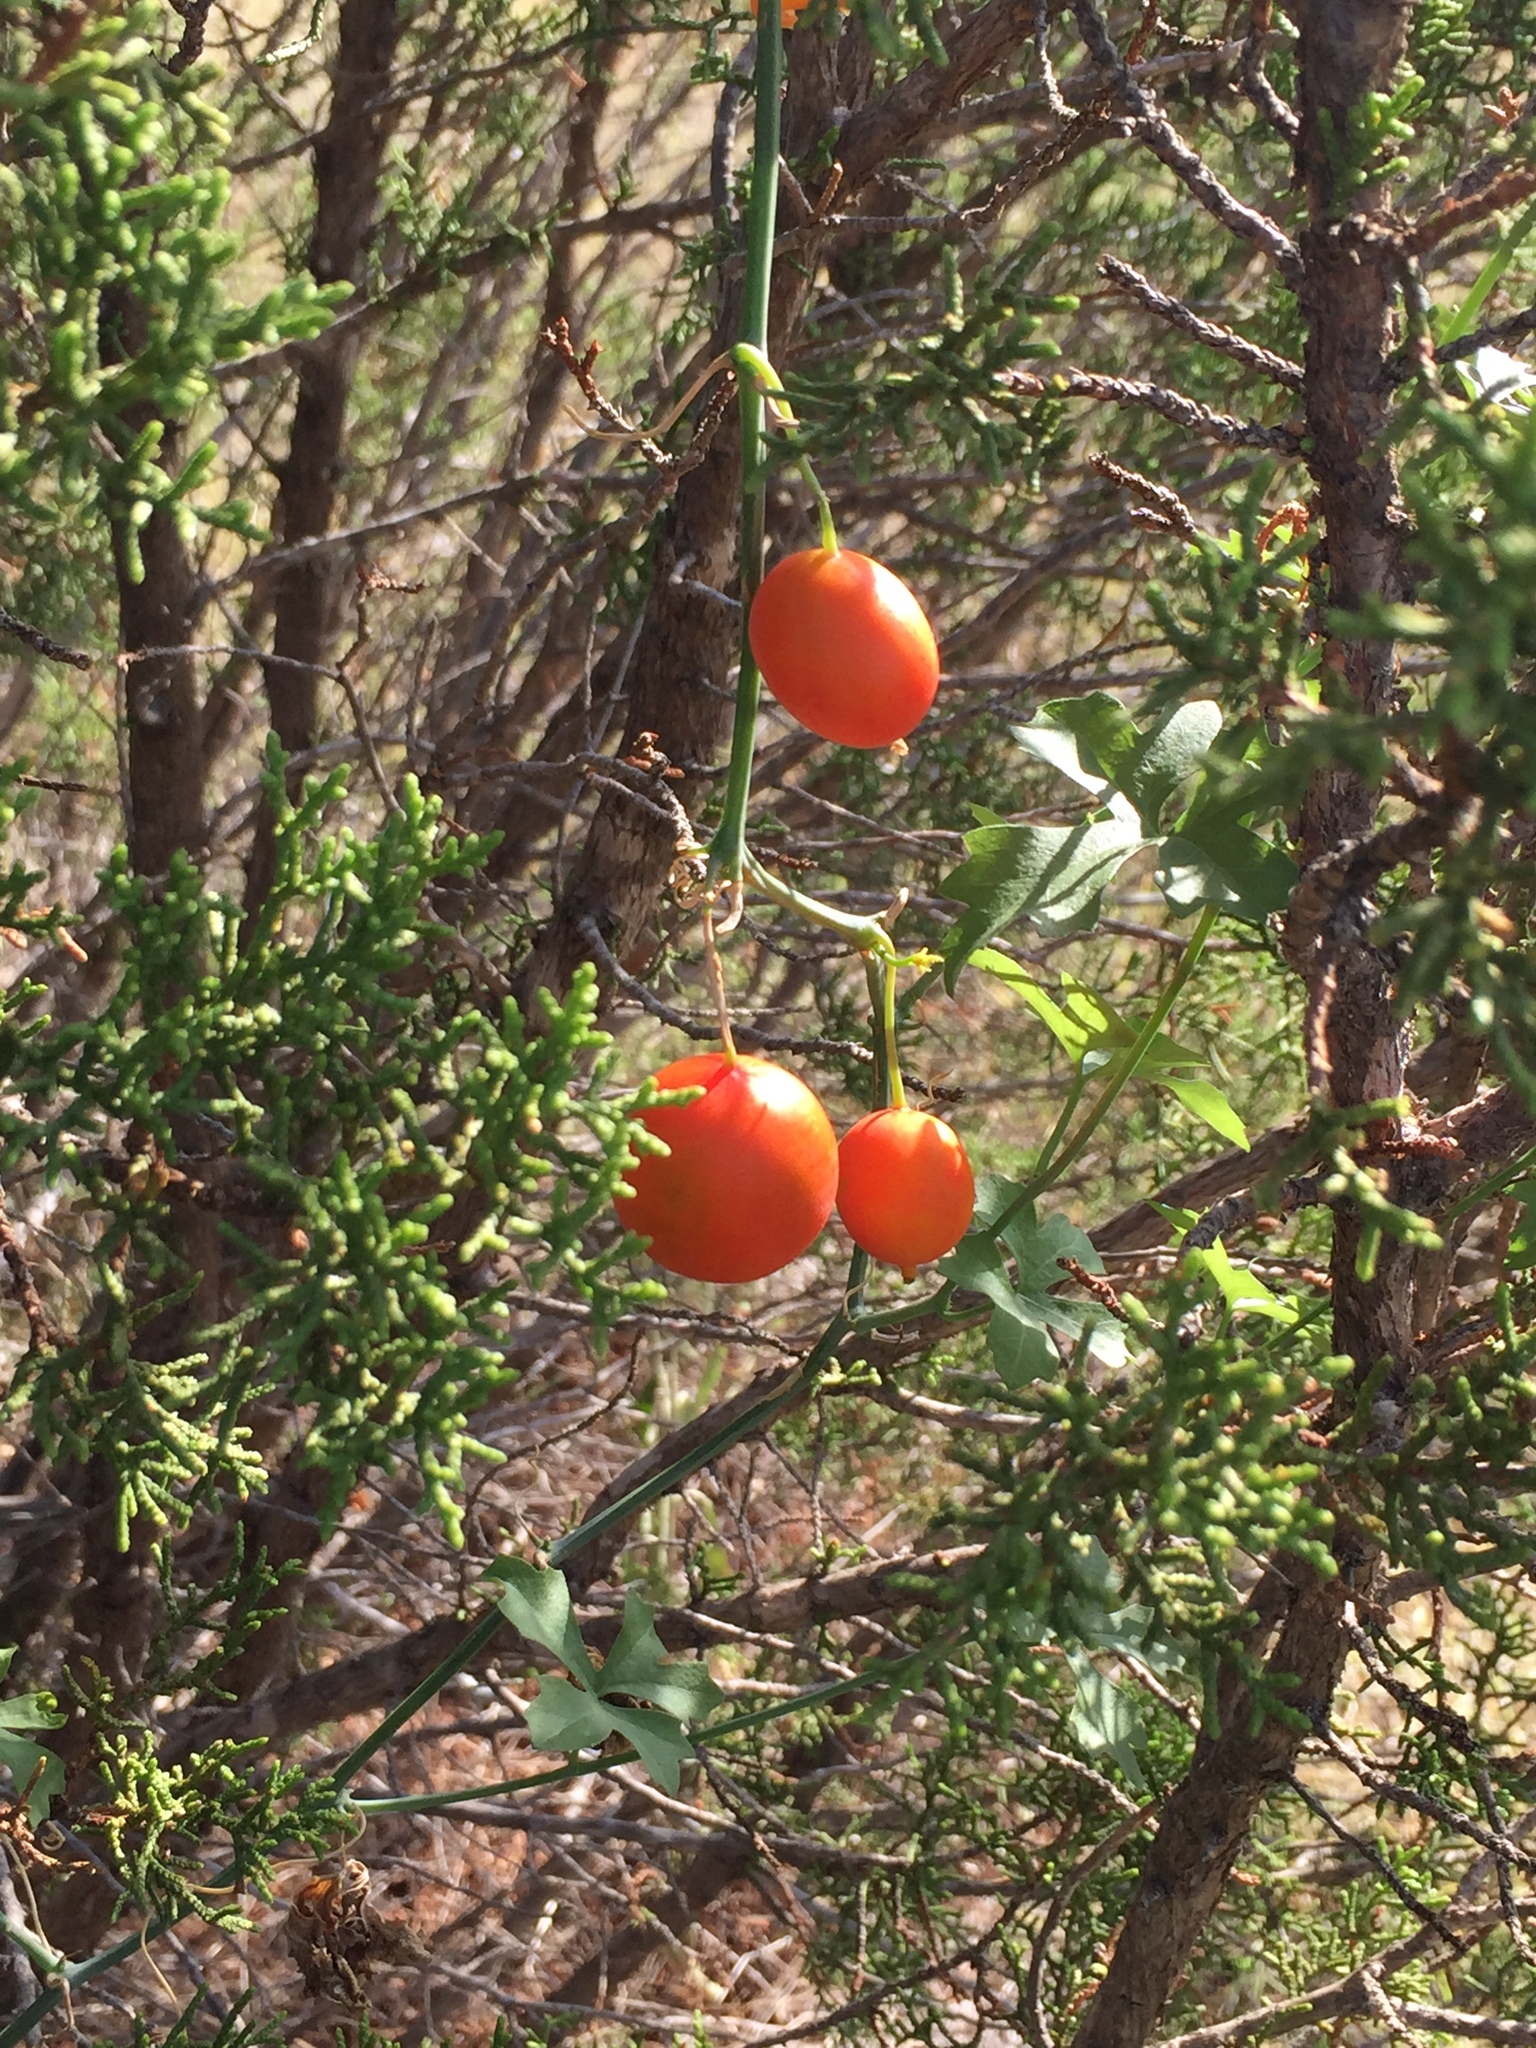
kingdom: Plantae
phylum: Tracheophyta
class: Magnoliopsida
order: Cucurbitales
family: Cucurbitaceae
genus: Ibervillea
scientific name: Ibervillea lindheimeri
